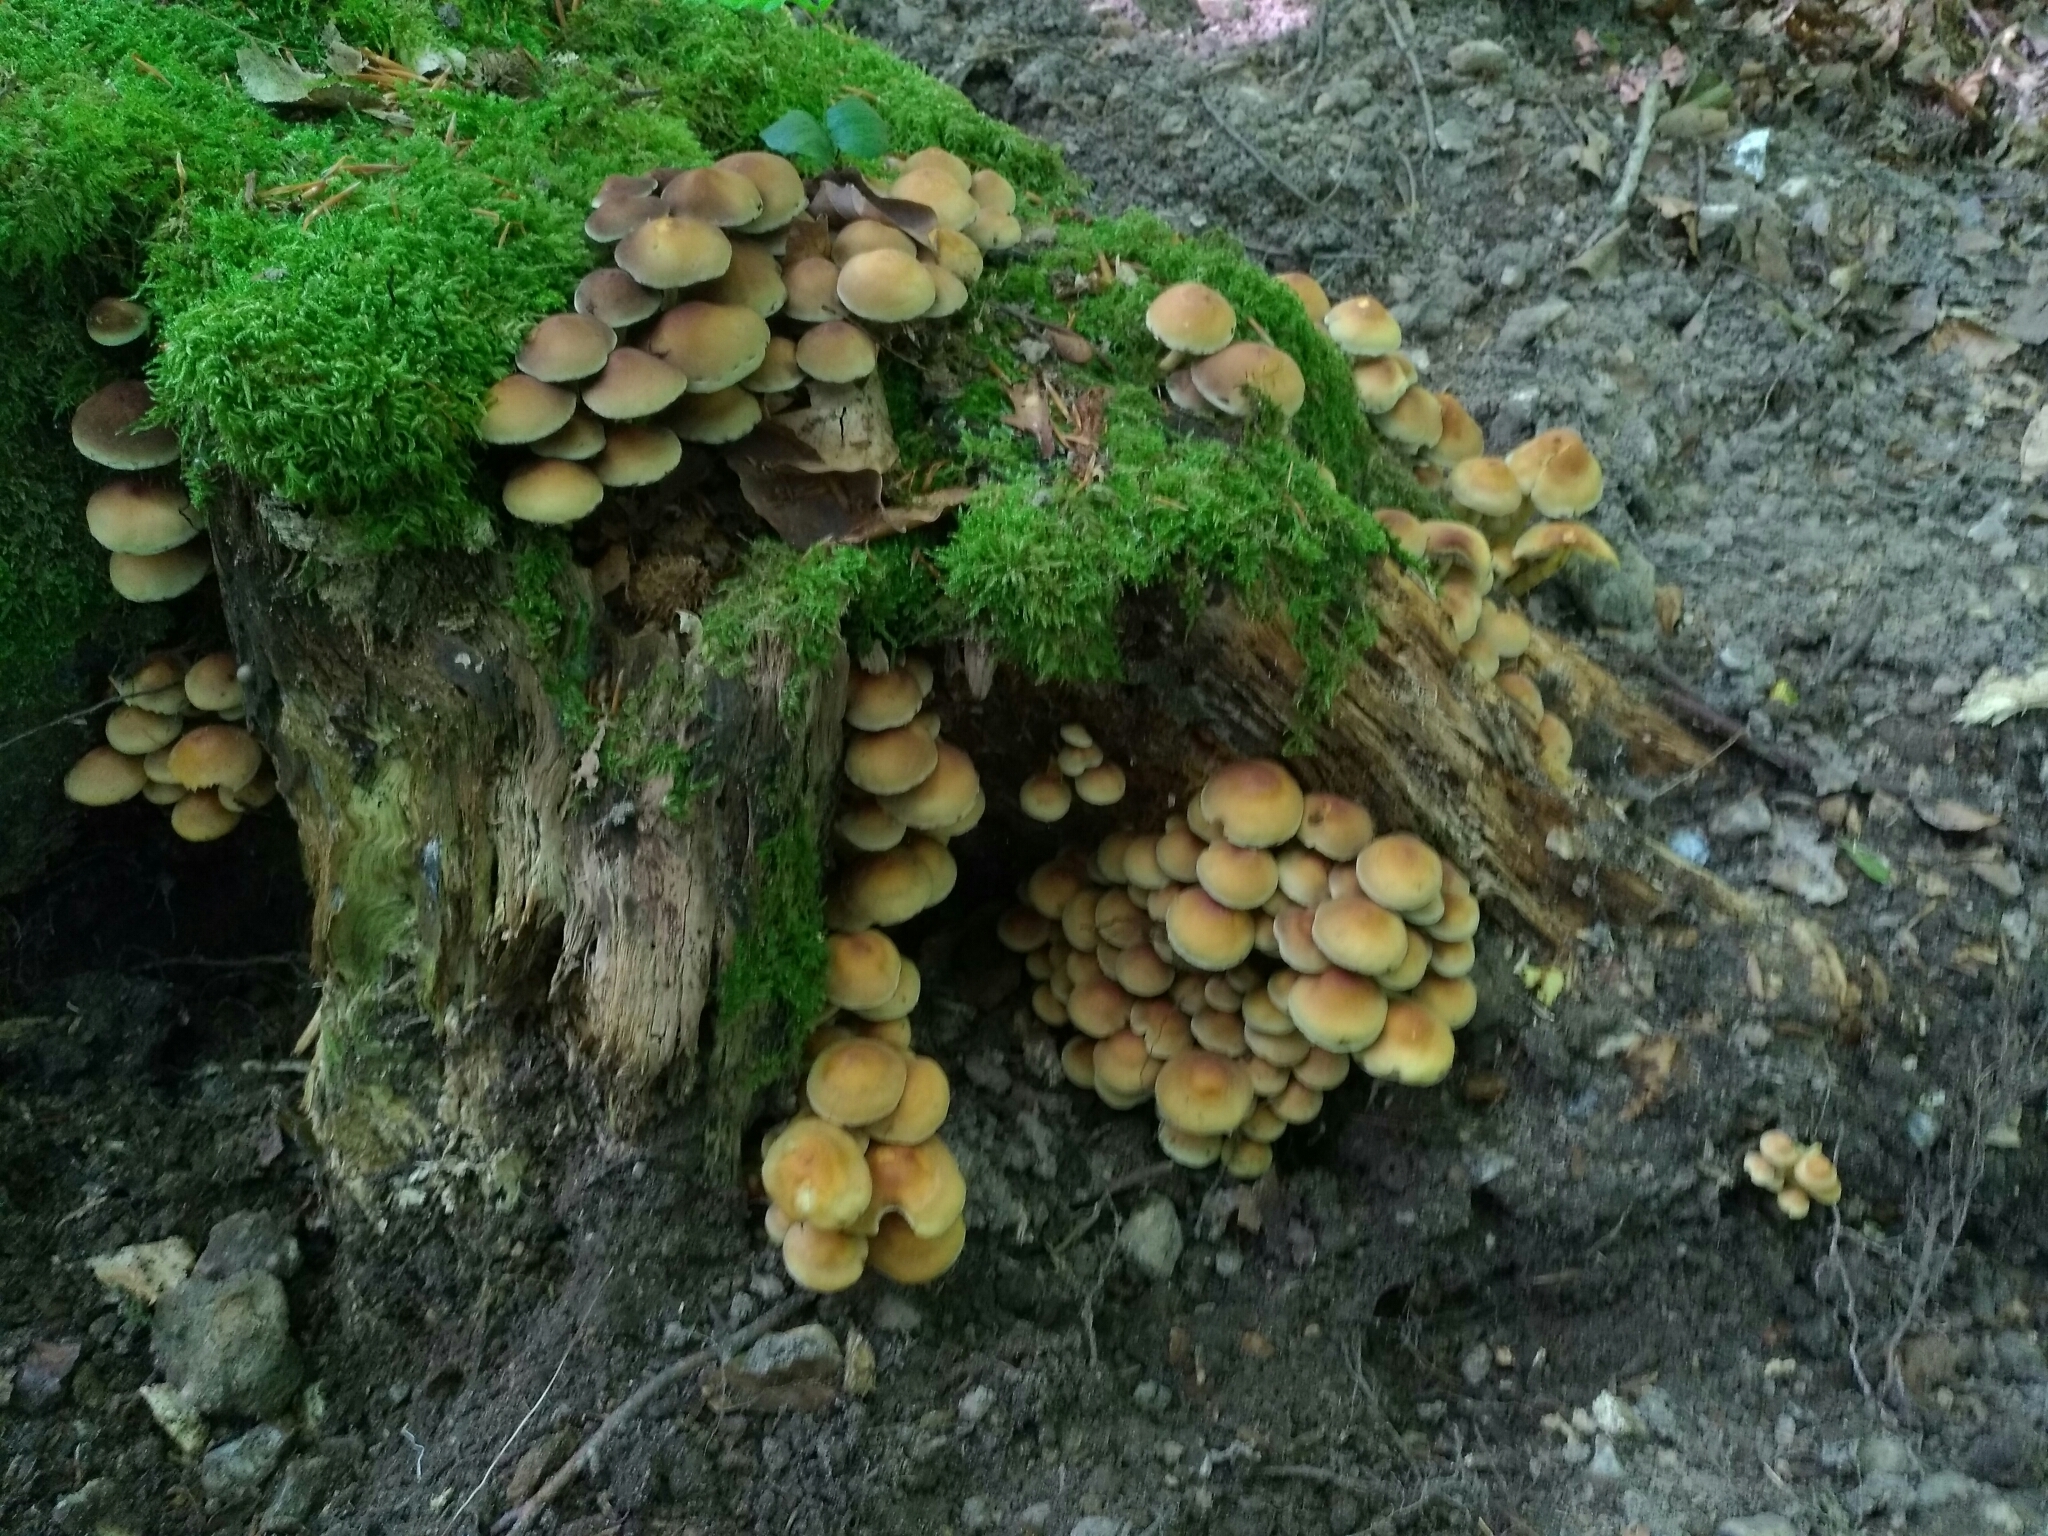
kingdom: Fungi
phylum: Basidiomycota
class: Agaricomycetes
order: Agaricales
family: Strophariaceae
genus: Hypholoma
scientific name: Hypholoma fasciculare
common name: Sulphur tuft
